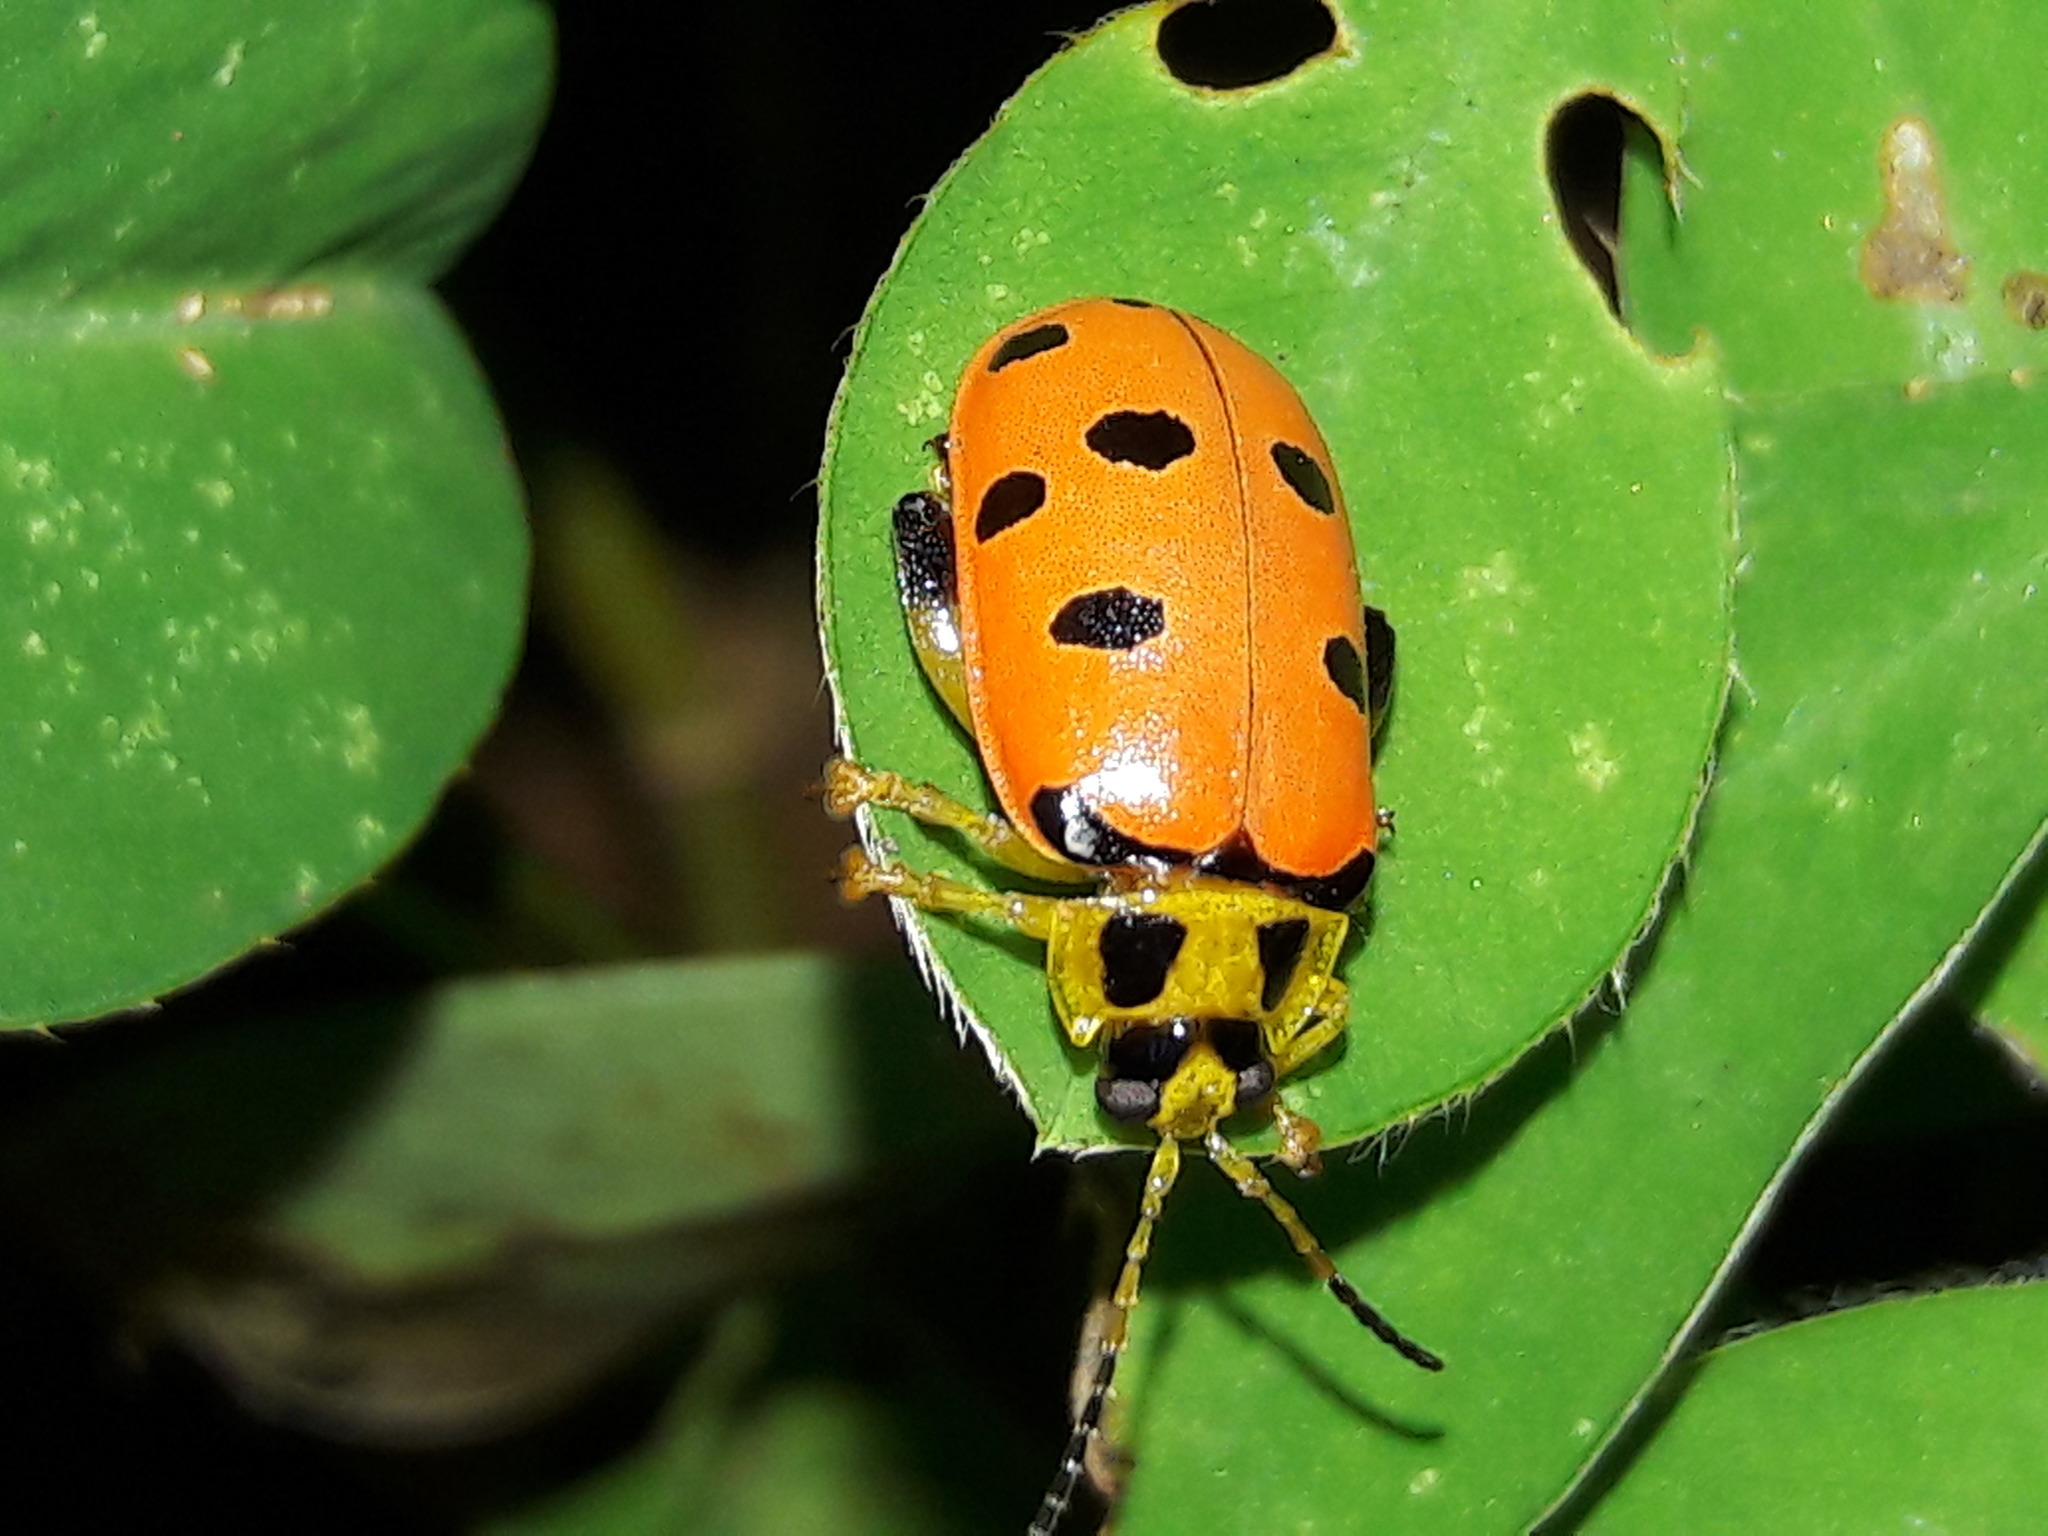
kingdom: Animalia
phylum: Arthropoda
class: Insecta
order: Coleoptera
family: Chrysomelidae
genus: Alagoasa
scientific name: Alagoasa
